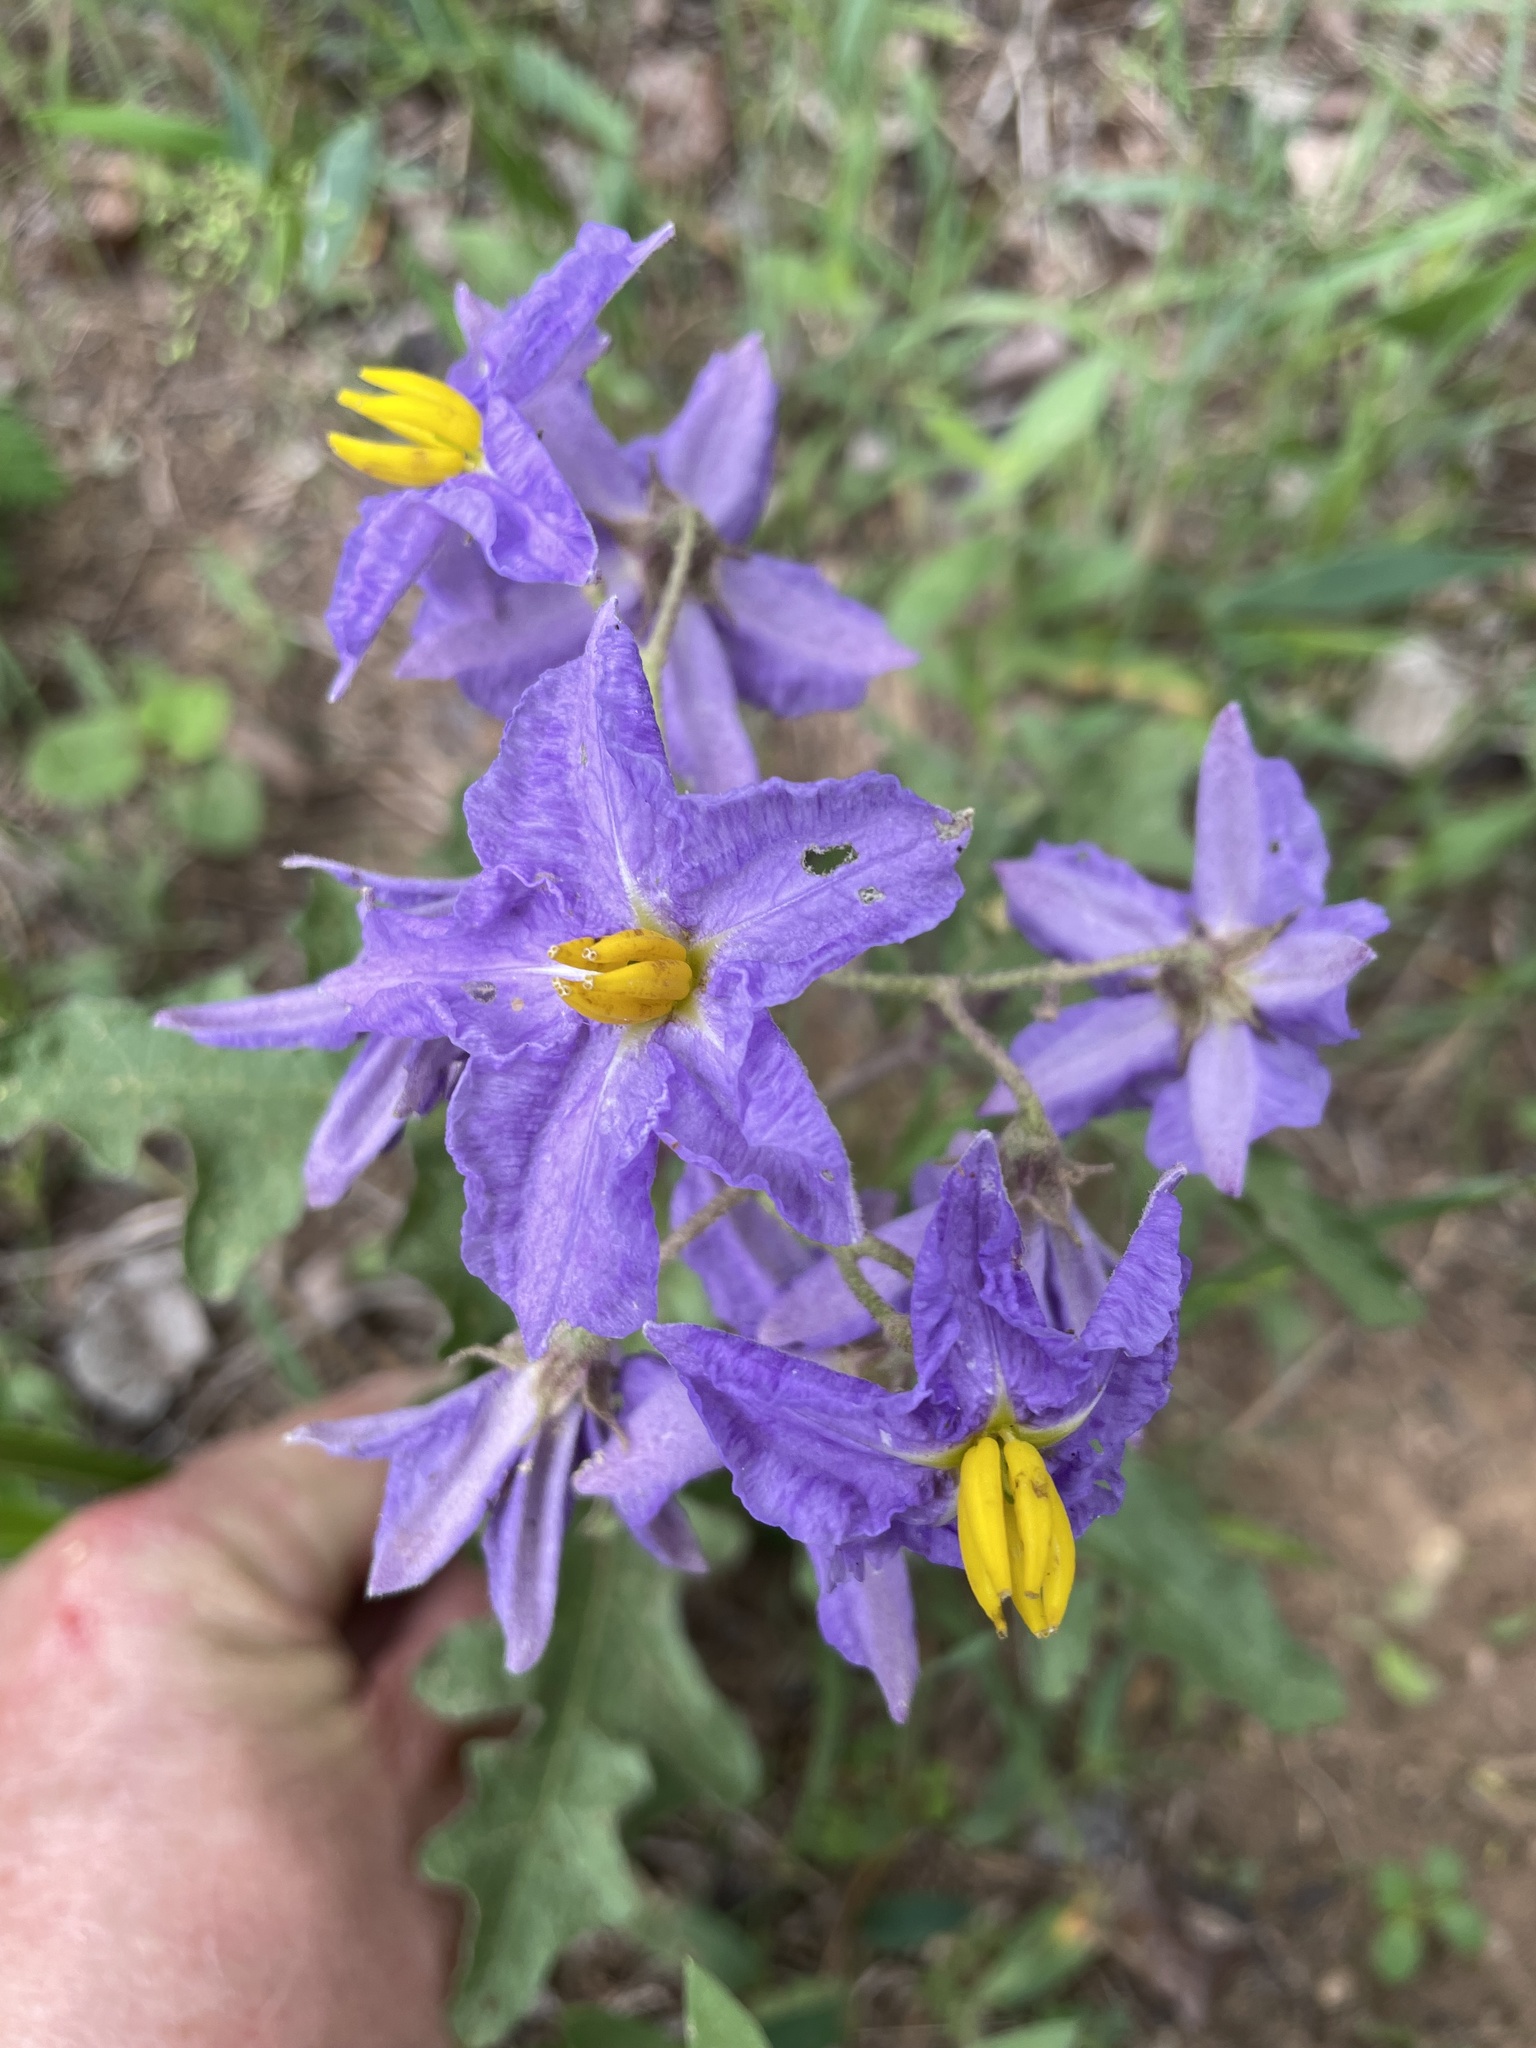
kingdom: Plantae
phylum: Tracheophyta
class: Magnoliopsida
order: Solanales
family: Solanaceae
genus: Solanum
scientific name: Solanum dimidiatum
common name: Carolina horse-nettle
